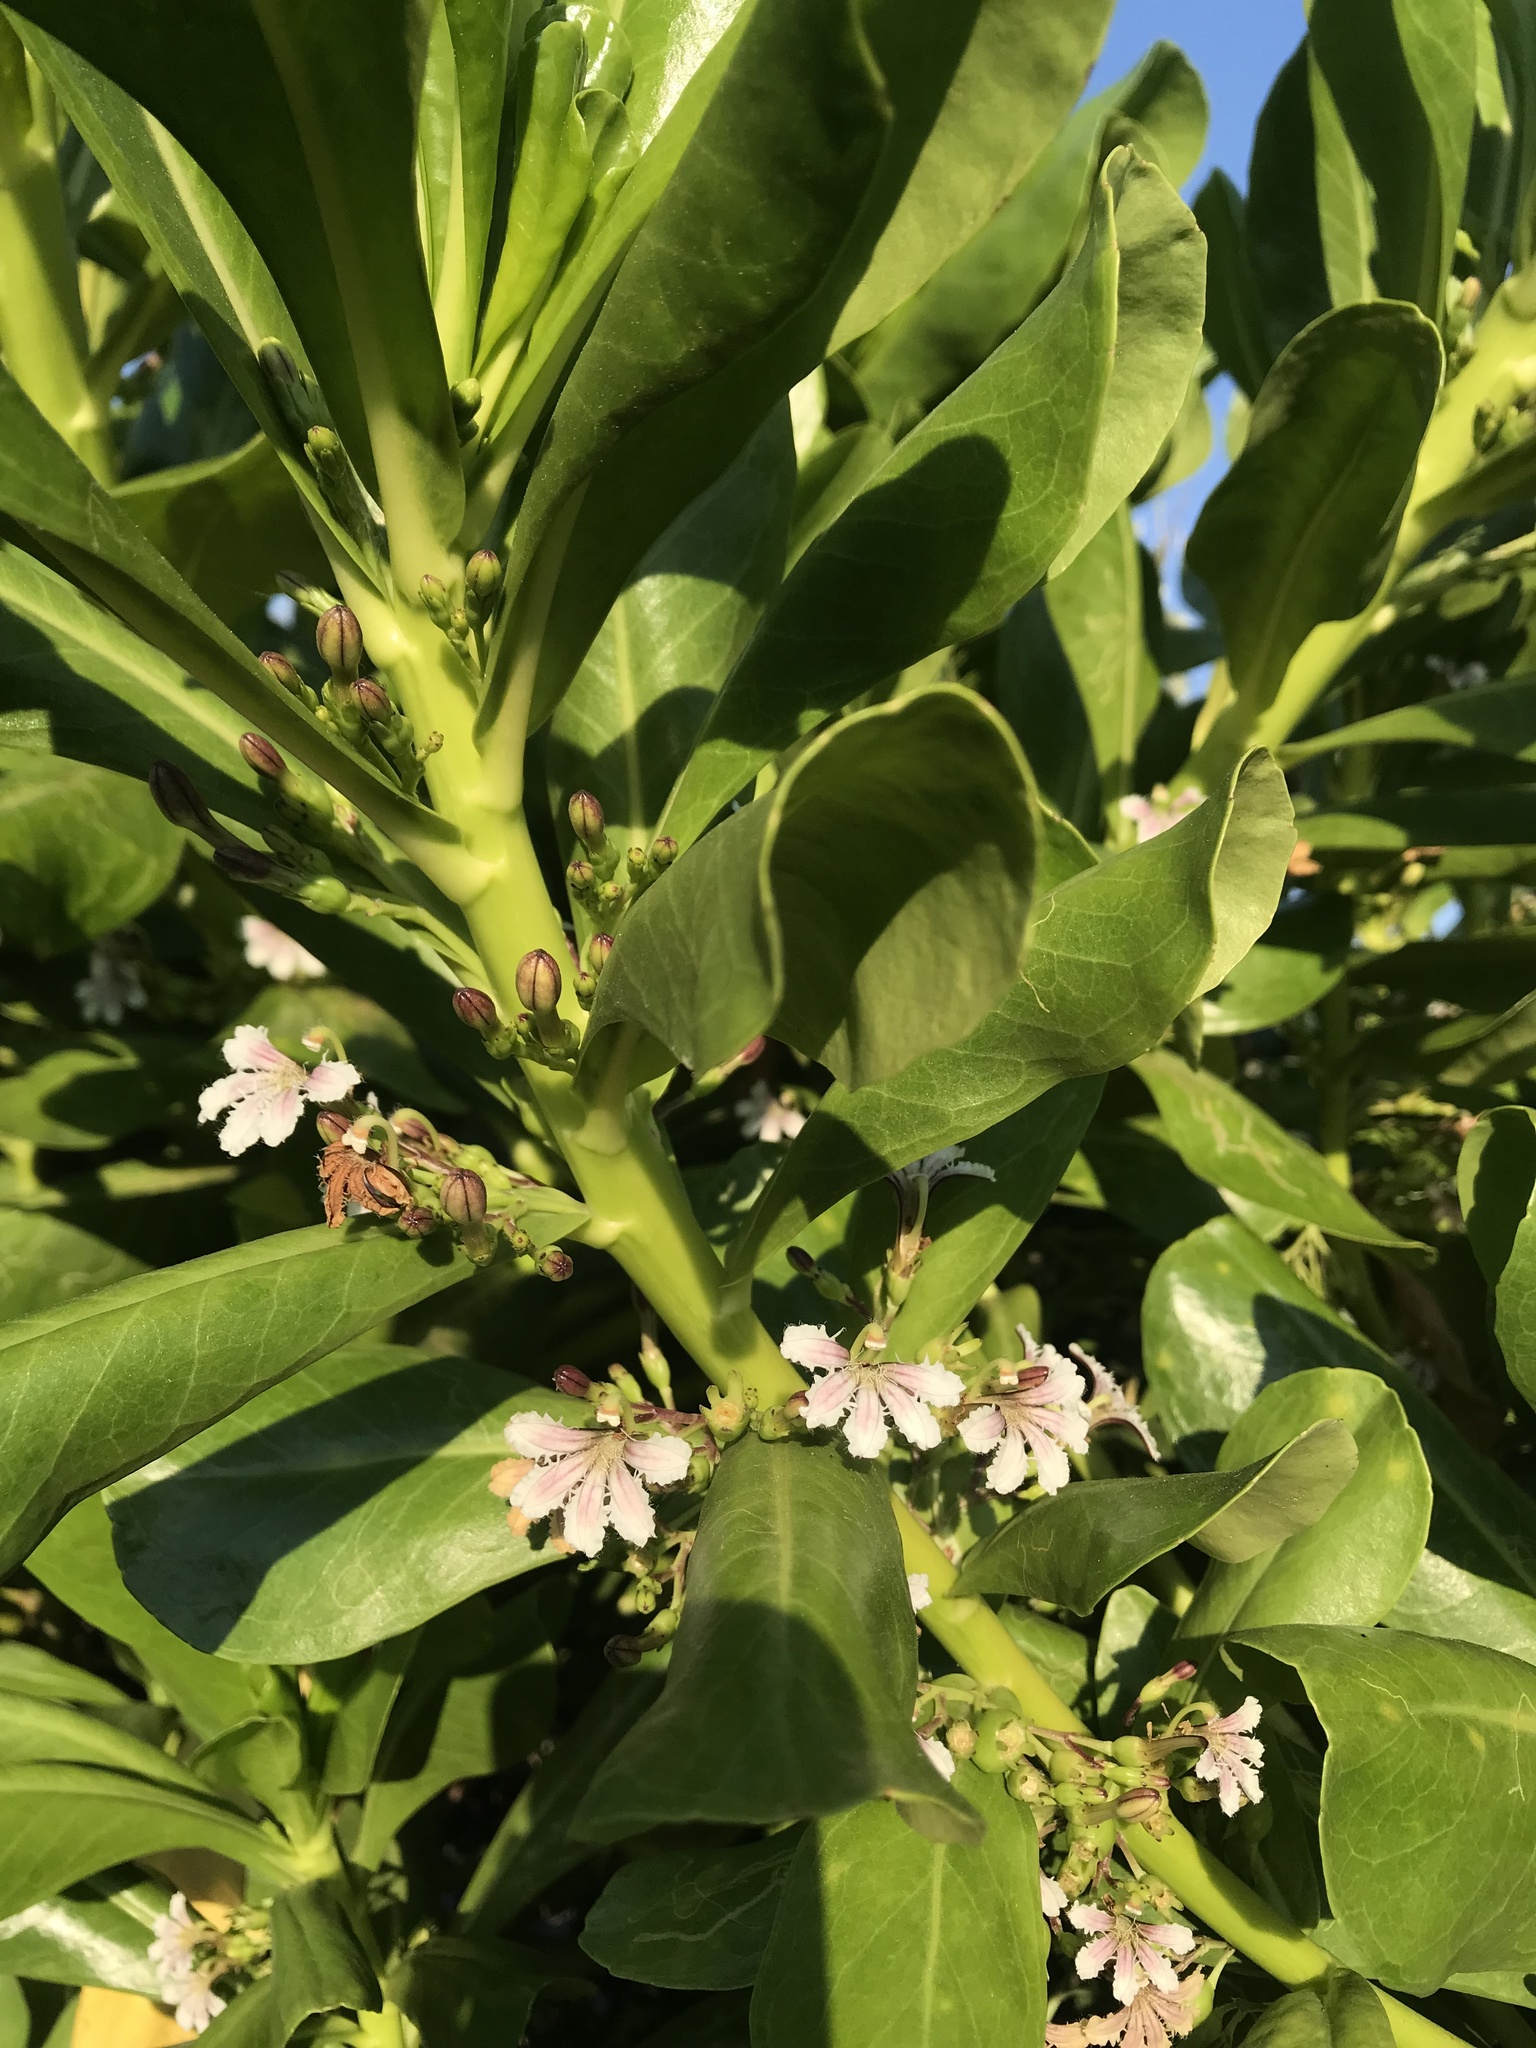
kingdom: Plantae
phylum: Tracheophyta
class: Magnoliopsida
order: Asterales
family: Goodeniaceae
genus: Scaevola
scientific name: Scaevola taccada
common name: Sea lettucetree
